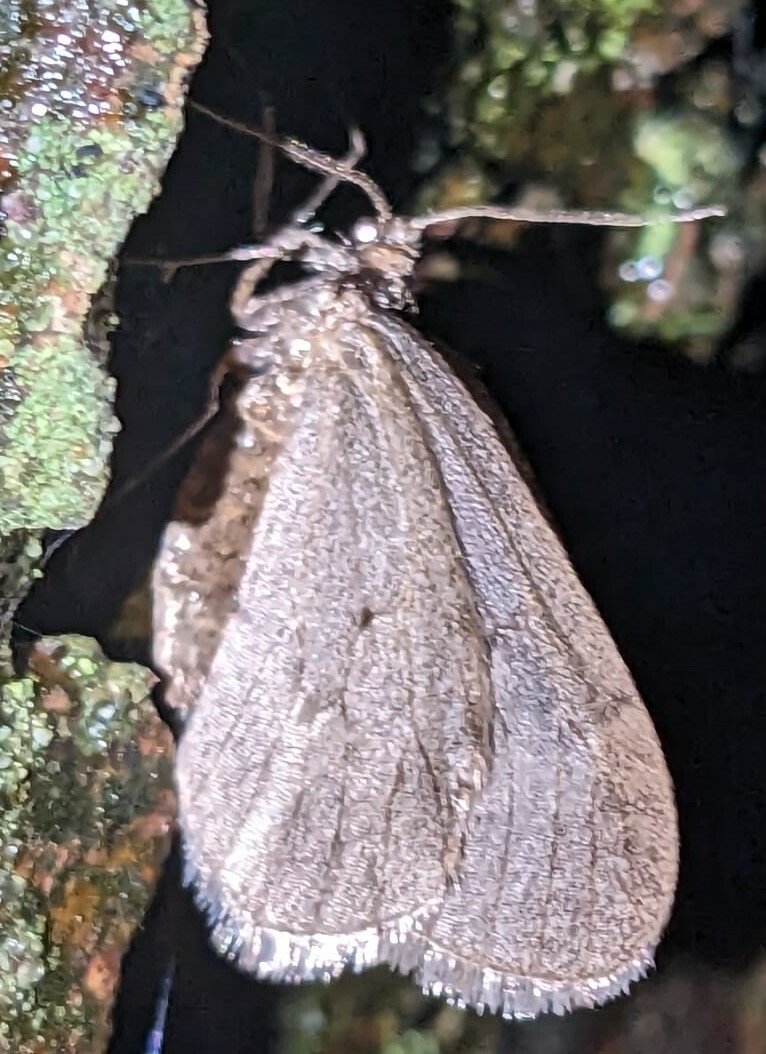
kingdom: Animalia
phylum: Arthropoda
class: Insecta
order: Lepidoptera
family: Geometridae
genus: Operophtera
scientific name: Operophtera brumata
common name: Winter moth
